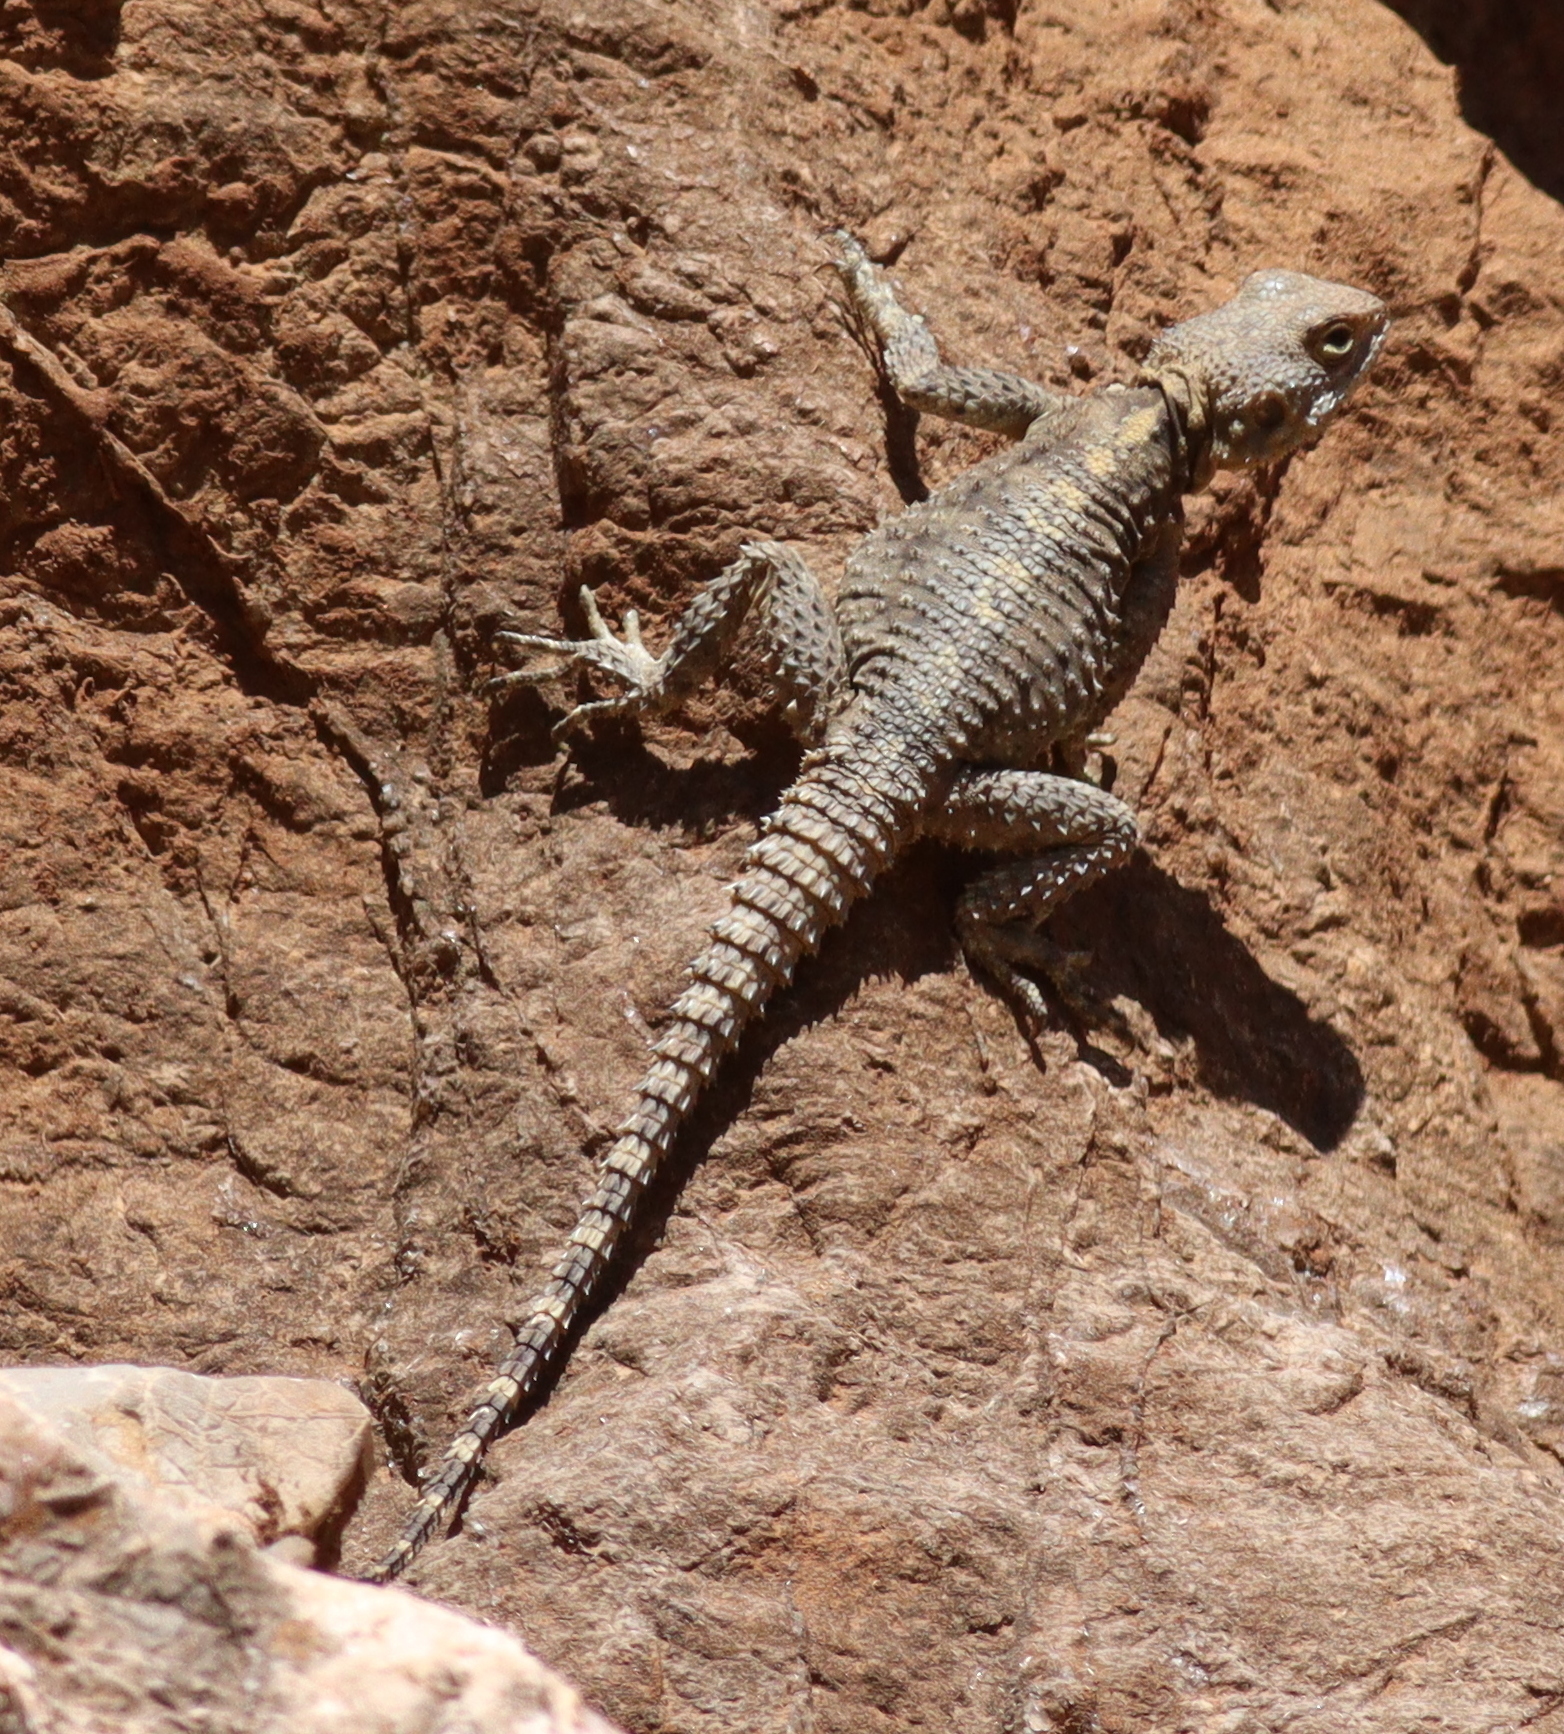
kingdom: Animalia
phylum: Chordata
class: Squamata
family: Agamidae
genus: Stellagama
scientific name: Stellagama stellio
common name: Starred agama
